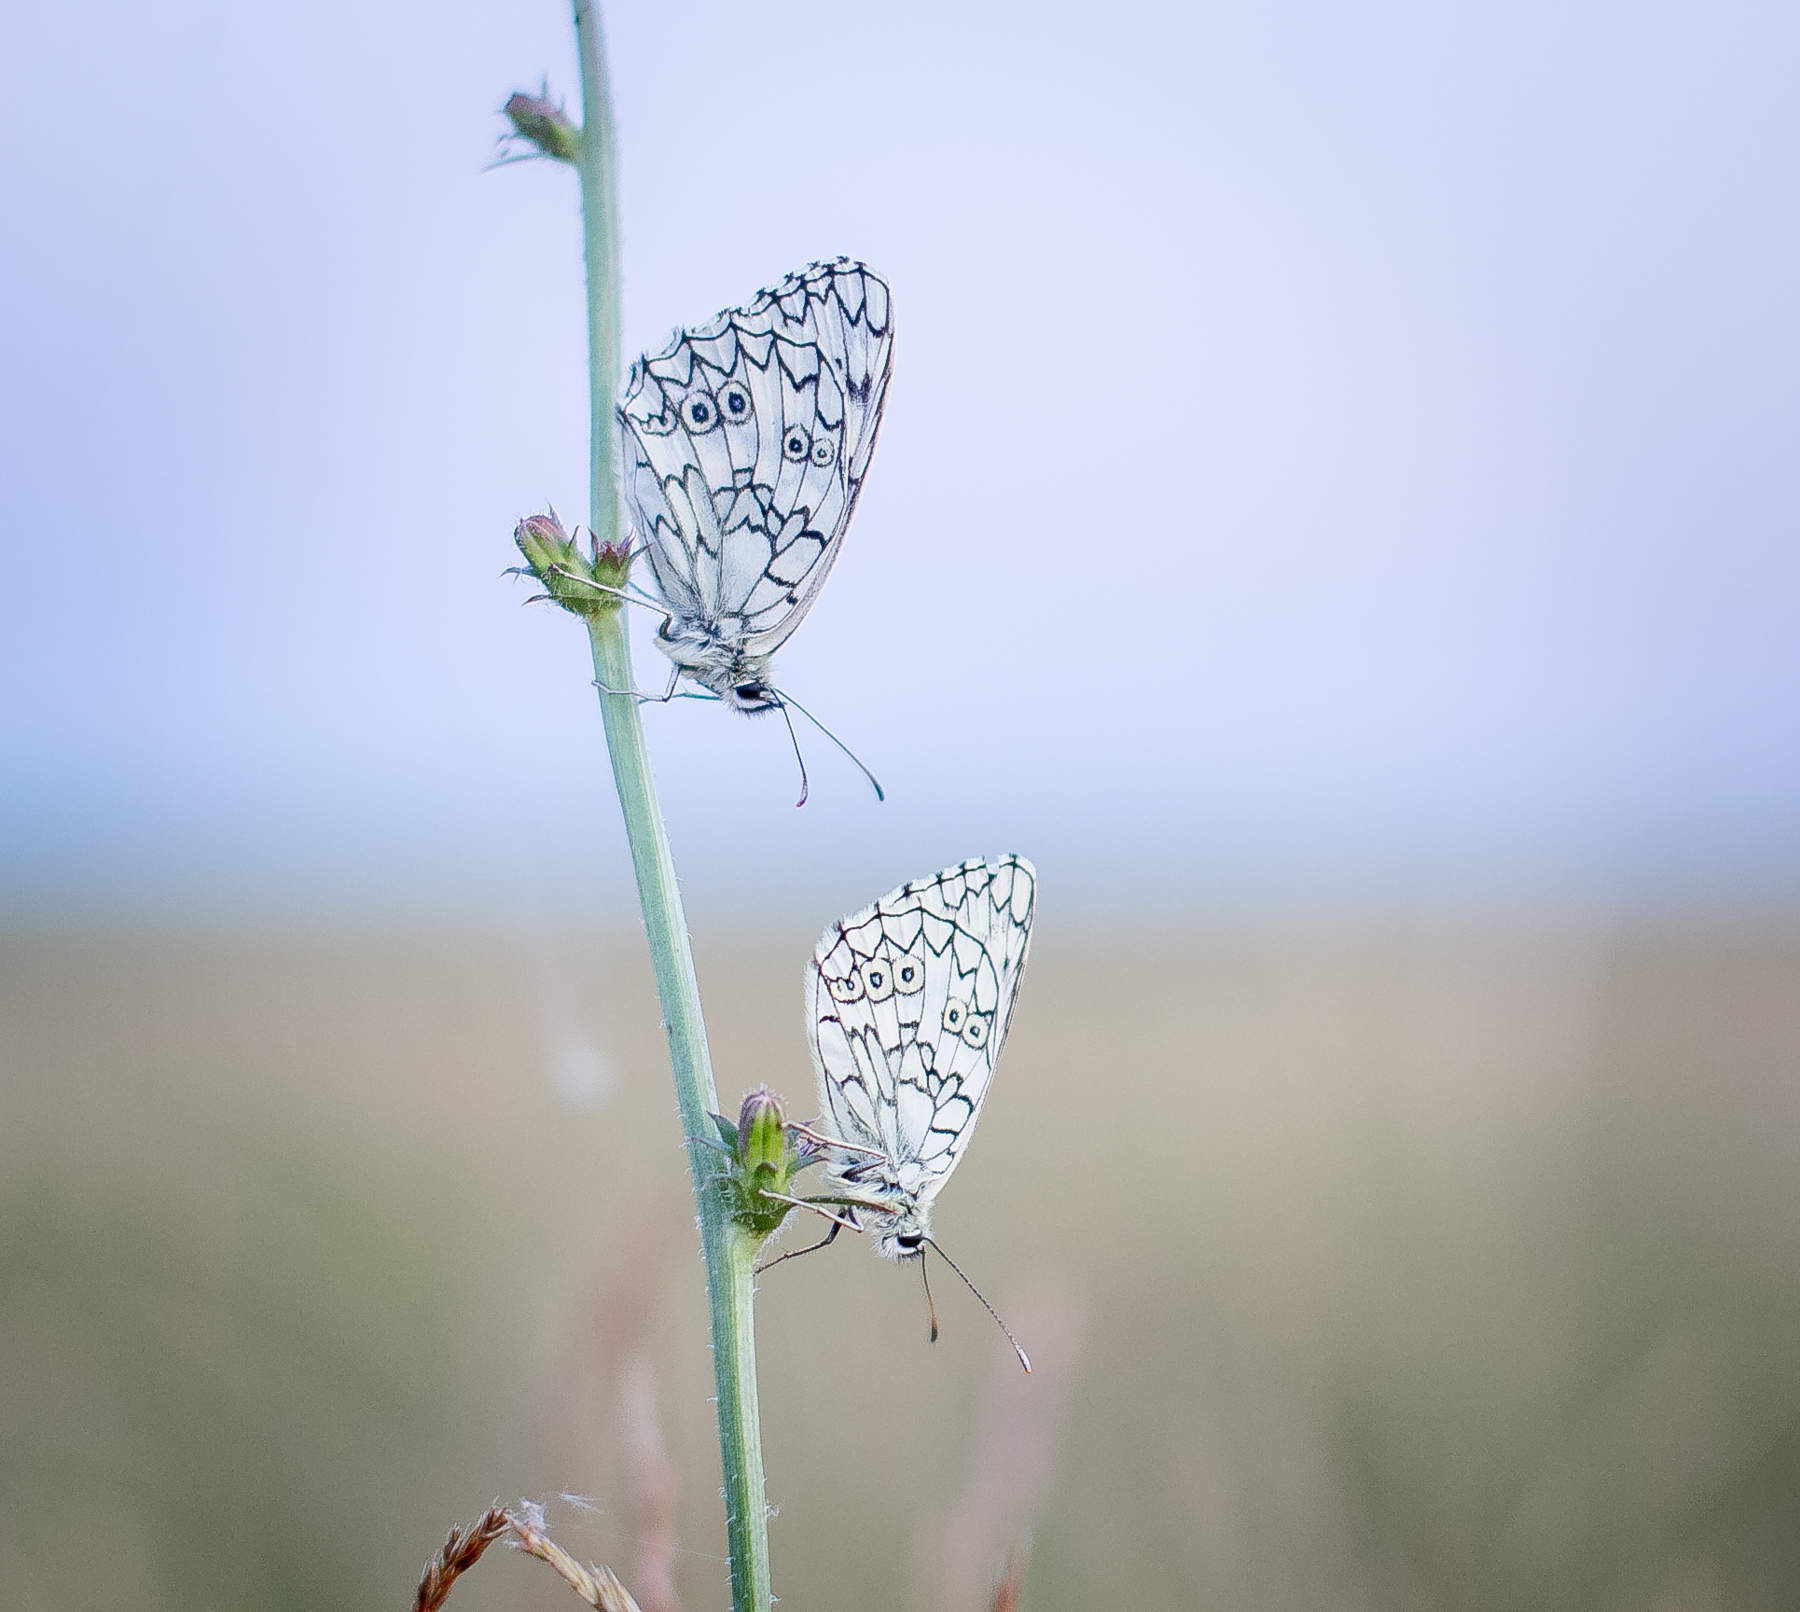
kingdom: Animalia
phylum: Arthropoda
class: Insecta
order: Lepidoptera
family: Nymphalidae
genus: Melanargia
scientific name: Melanargia japygia
